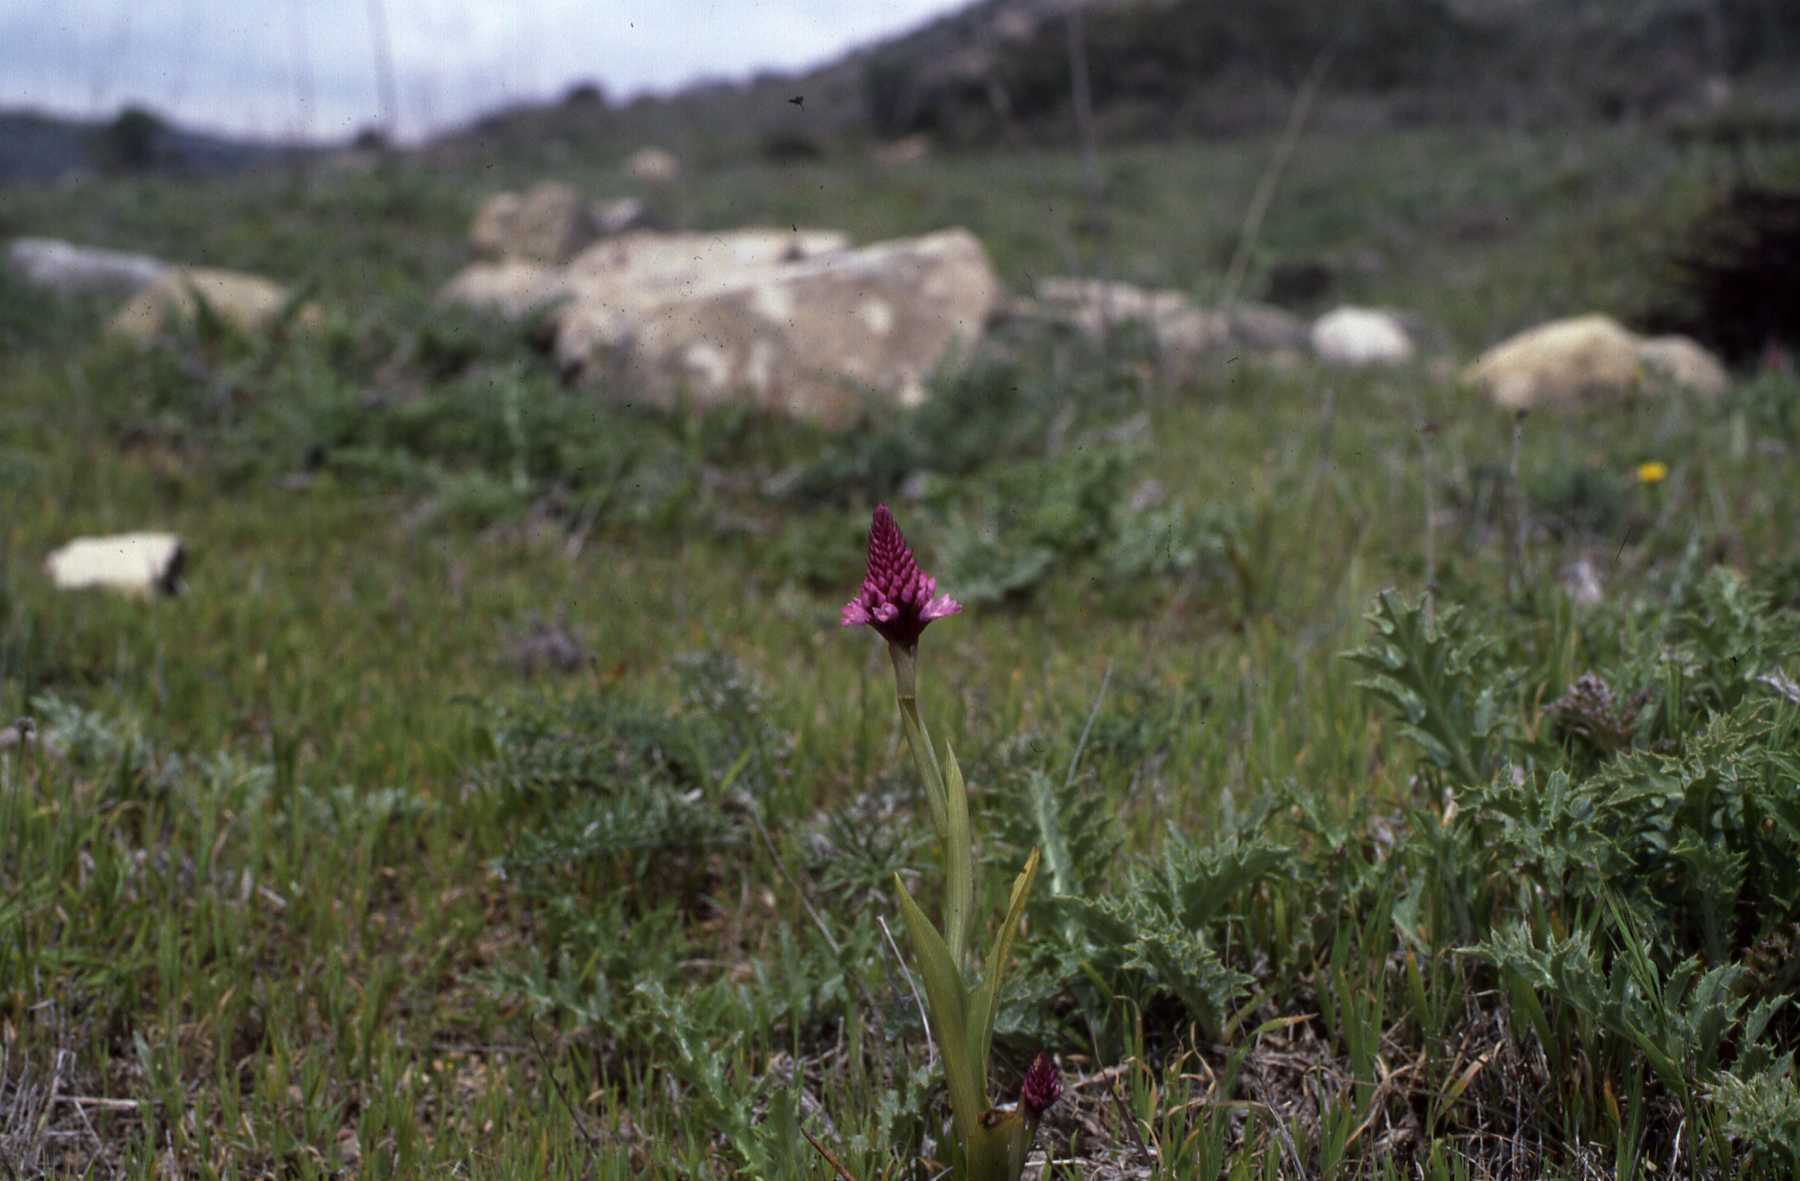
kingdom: Plantae
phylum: Tracheophyta
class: Liliopsida
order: Asparagales
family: Orchidaceae
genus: Anacamptis
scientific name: Anacamptis pyramidalis
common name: Pyramidal orchid
